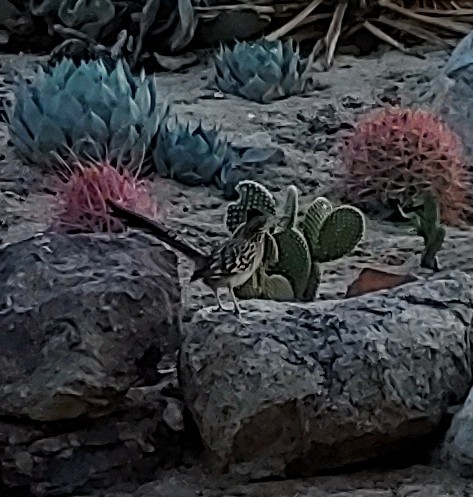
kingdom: Animalia
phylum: Chordata
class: Aves
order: Cuculiformes
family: Cuculidae
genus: Geococcyx
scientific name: Geococcyx californianus
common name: Greater roadrunner
